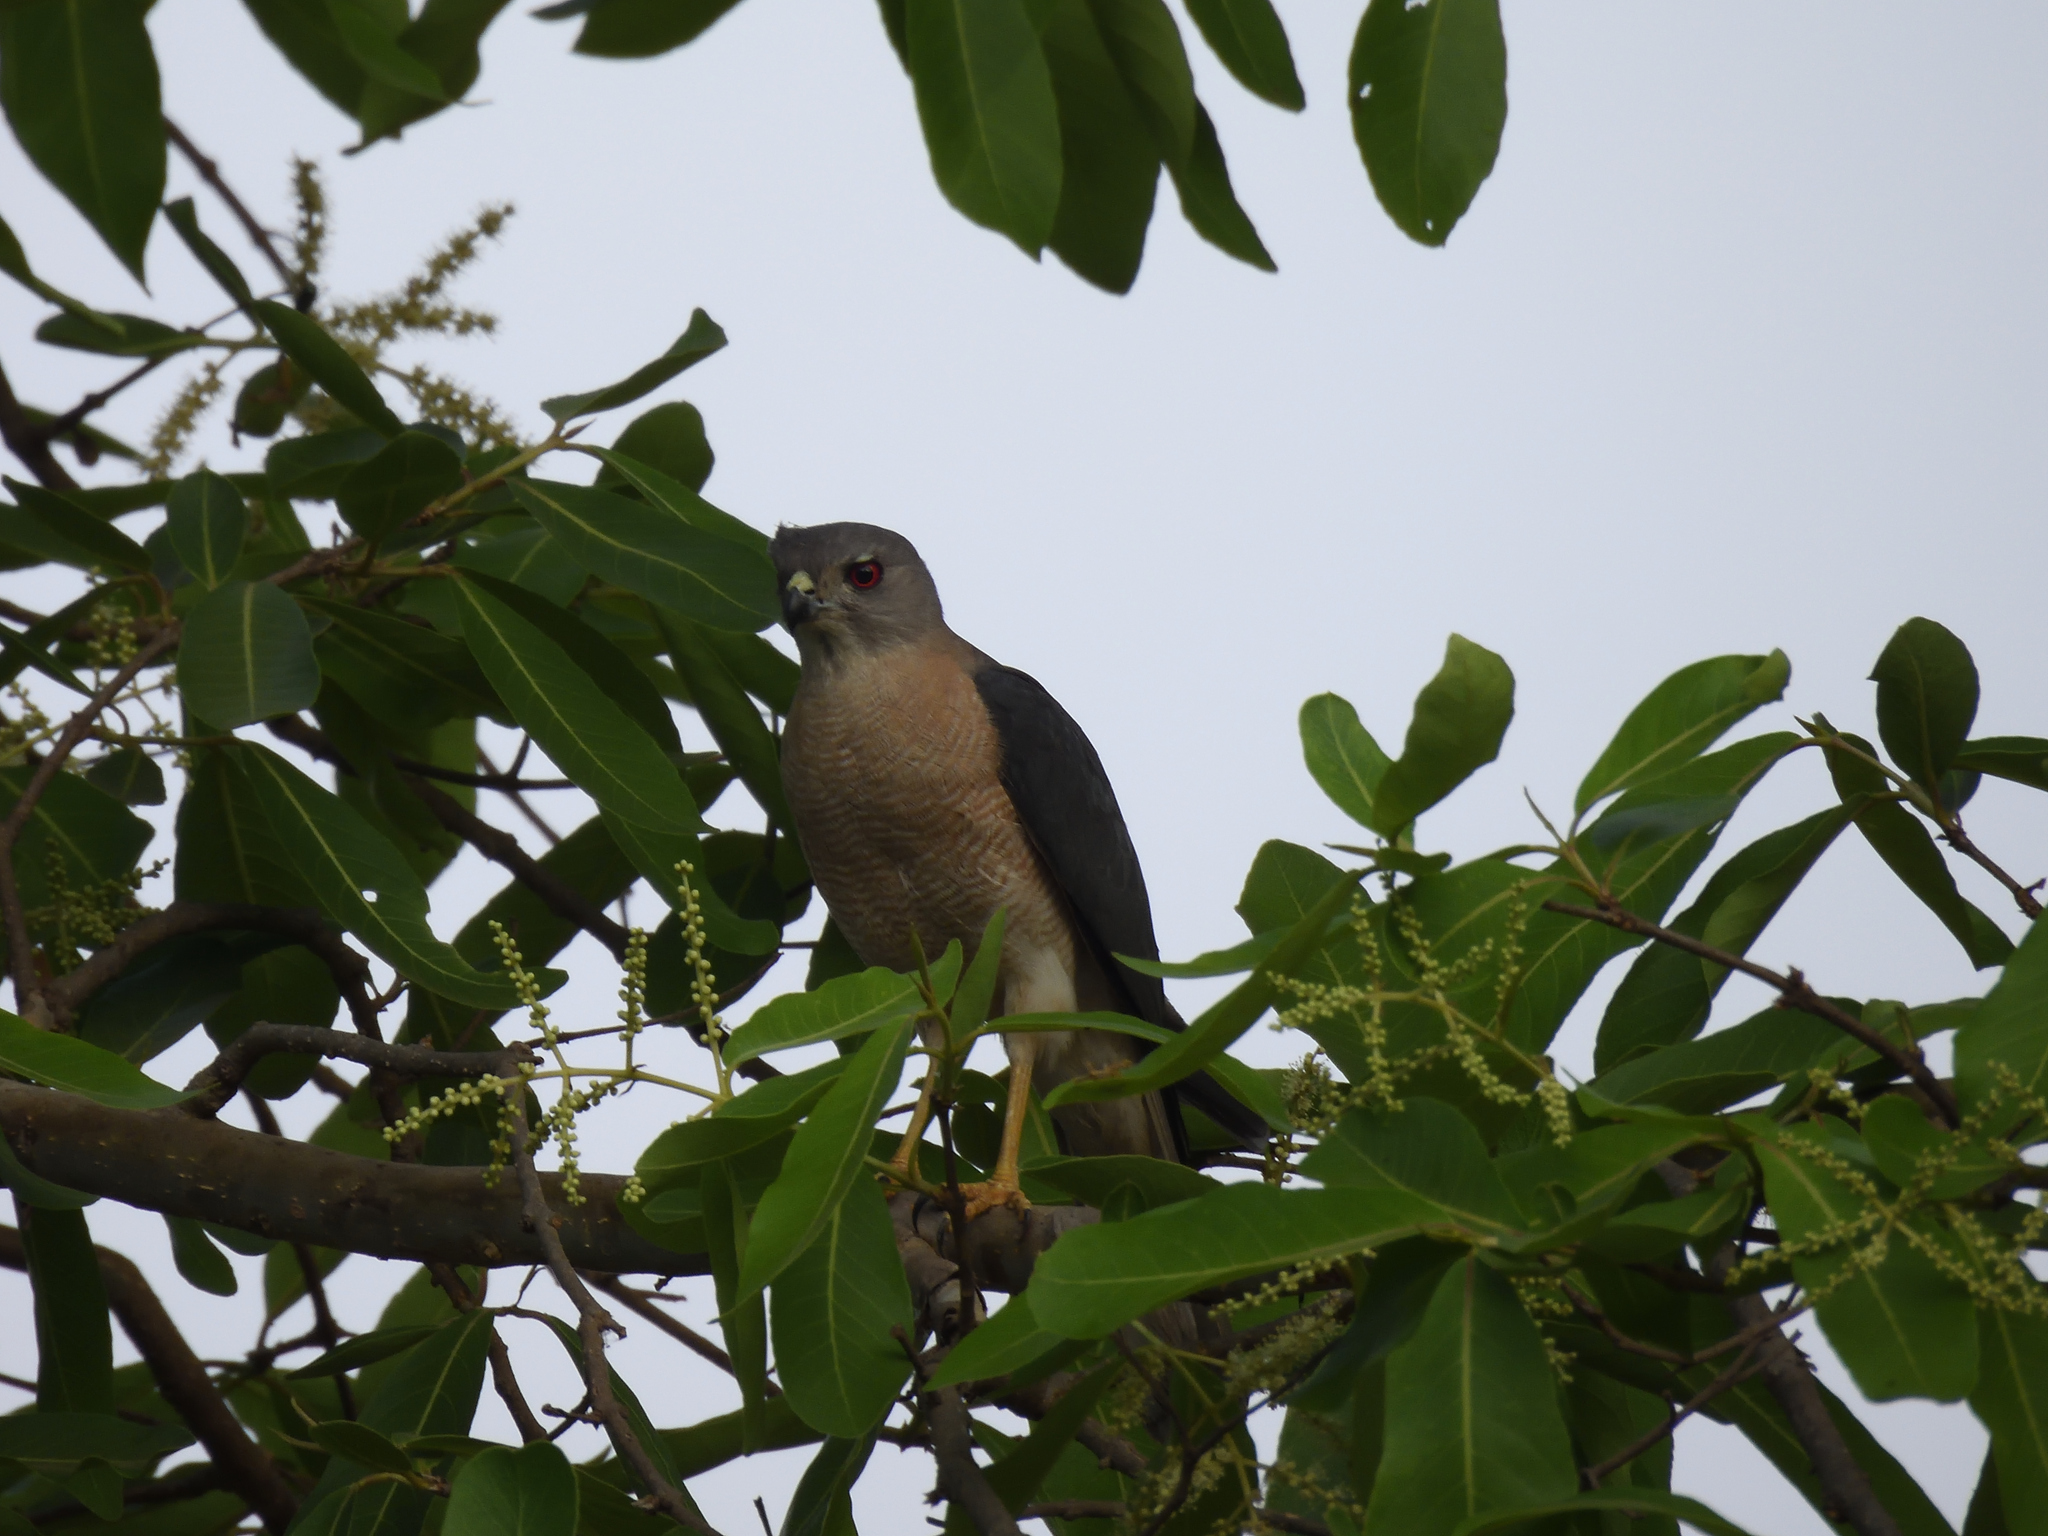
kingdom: Animalia
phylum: Chordata
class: Aves
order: Accipitriformes
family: Accipitridae
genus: Accipiter
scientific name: Accipiter badius
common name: Shikra
